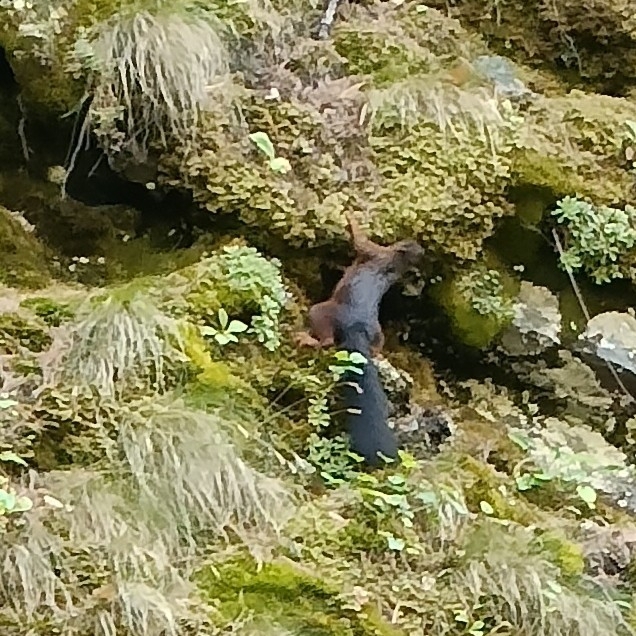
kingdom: Animalia
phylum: Chordata
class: Mammalia
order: Rodentia
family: Sciuridae
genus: Sciurus
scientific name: Sciurus vulgaris
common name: Eurasian red squirrel
